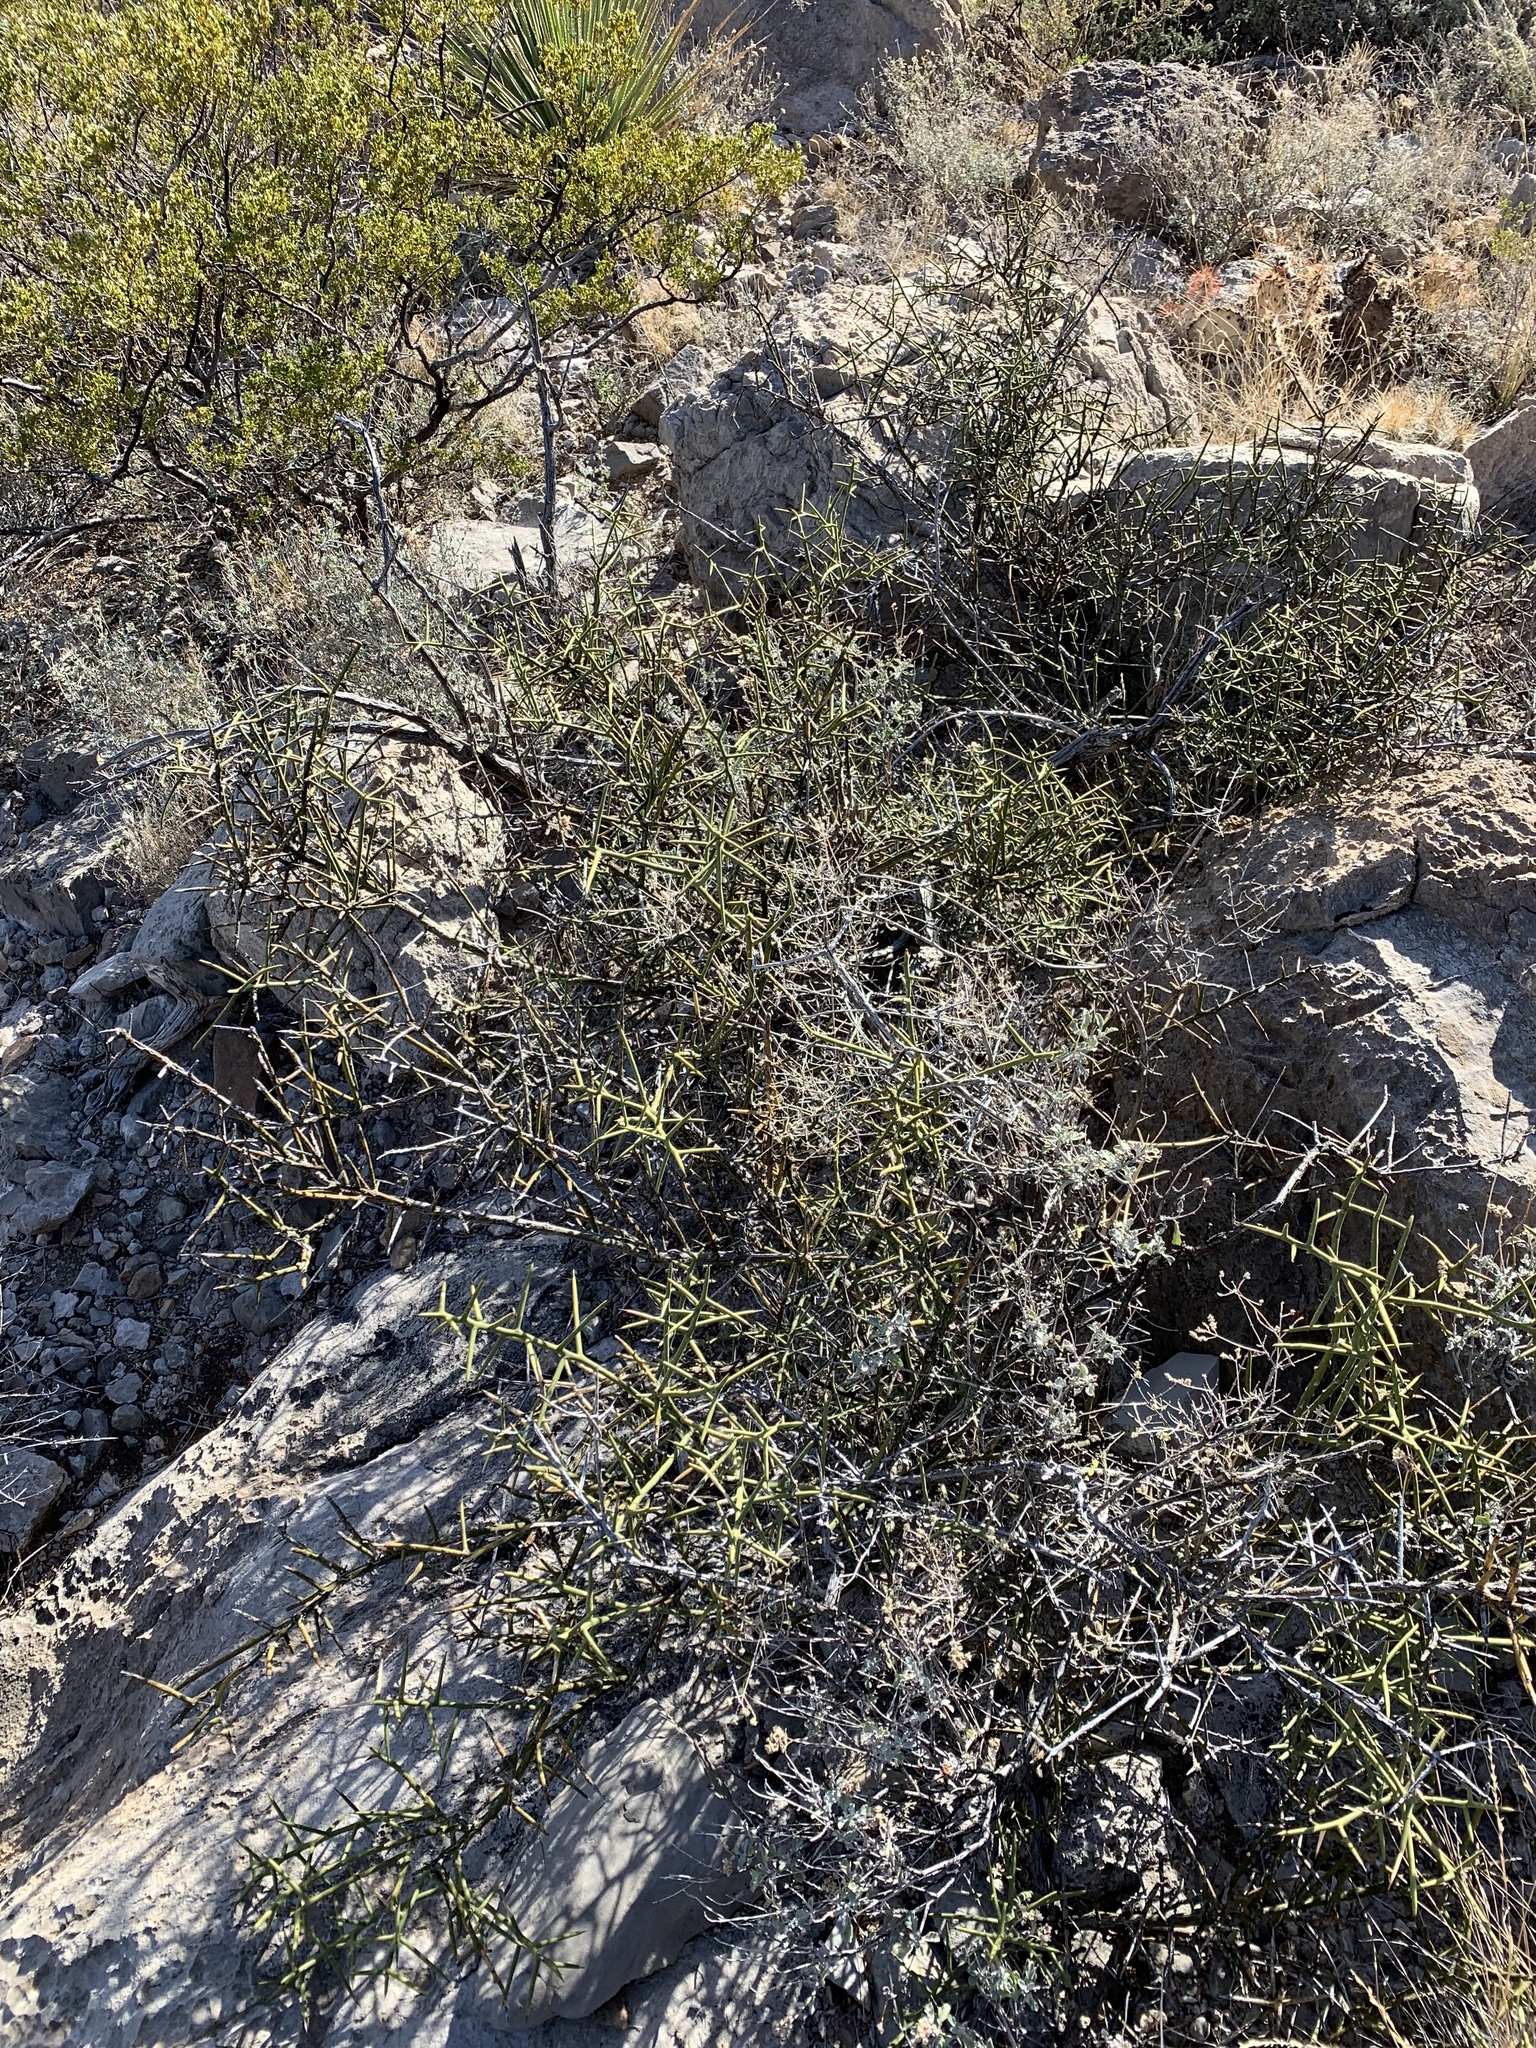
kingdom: Plantae
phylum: Tracheophyta
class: Magnoliopsida
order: Brassicales
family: Koeberliniaceae
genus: Koeberlinia
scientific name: Koeberlinia spinosa
